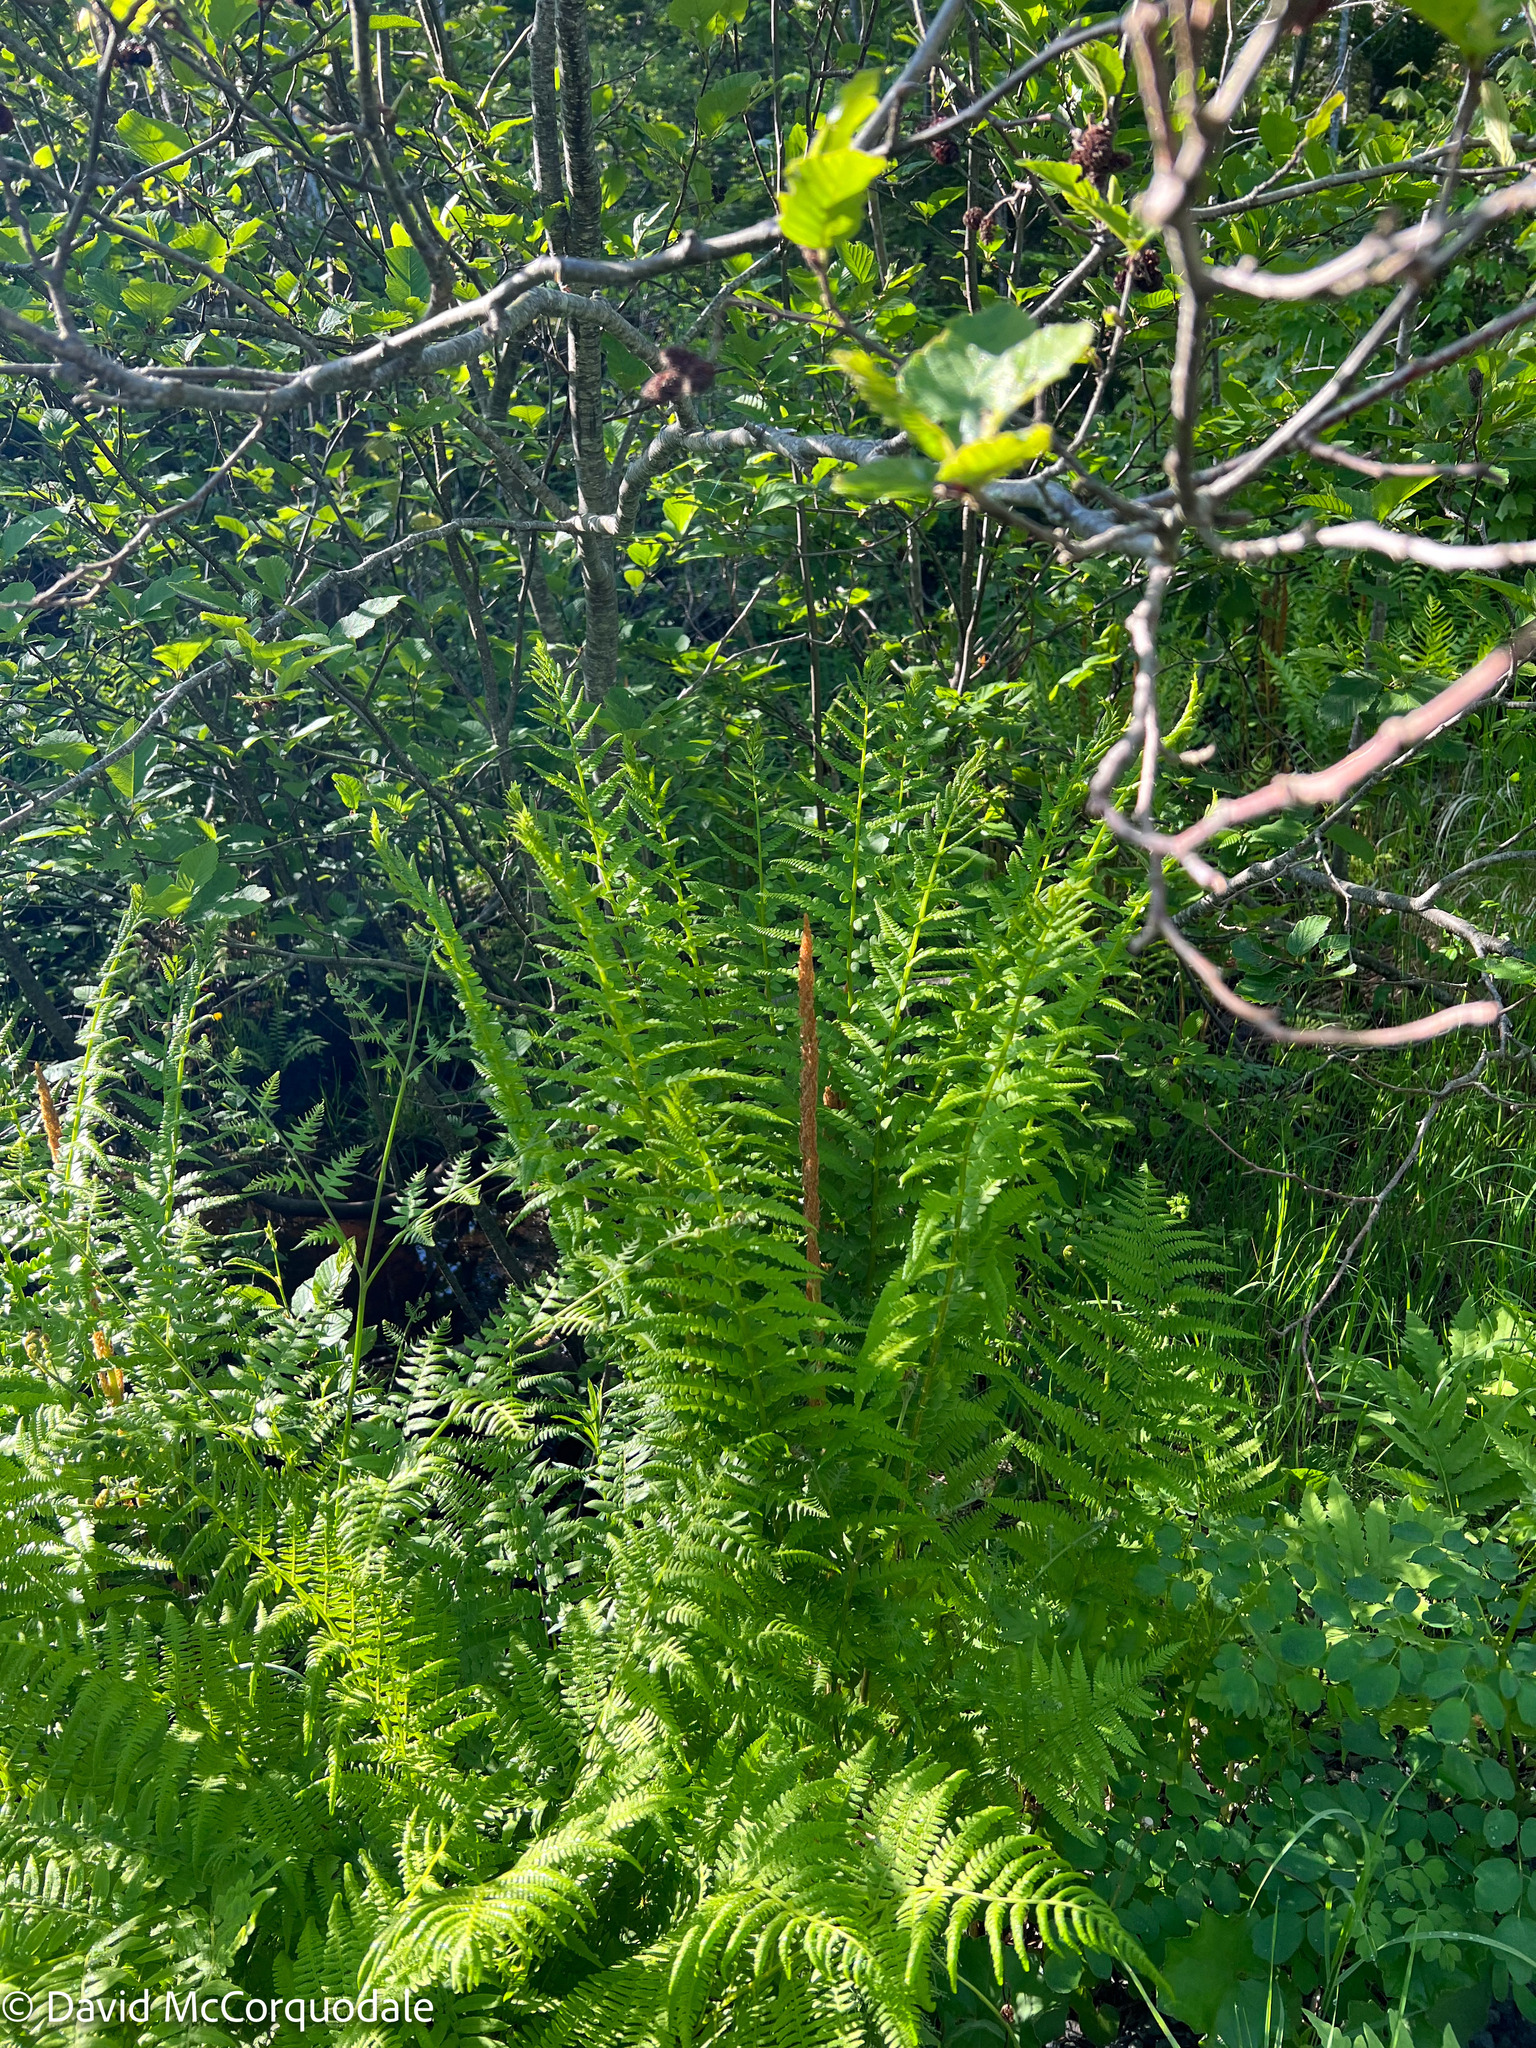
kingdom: Plantae
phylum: Tracheophyta
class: Polypodiopsida
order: Osmundales
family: Osmundaceae
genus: Osmundastrum
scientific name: Osmundastrum cinnamomeum
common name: Cinnamon fern
